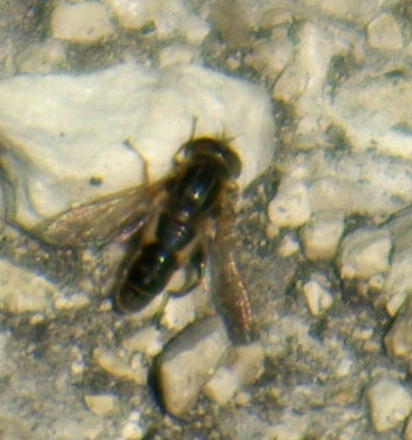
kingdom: Animalia
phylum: Arthropoda
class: Insecta
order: Diptera
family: Syrphidae
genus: Anasimyia
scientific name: Anasimyia bilinearis
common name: Two-lined swamp fly
